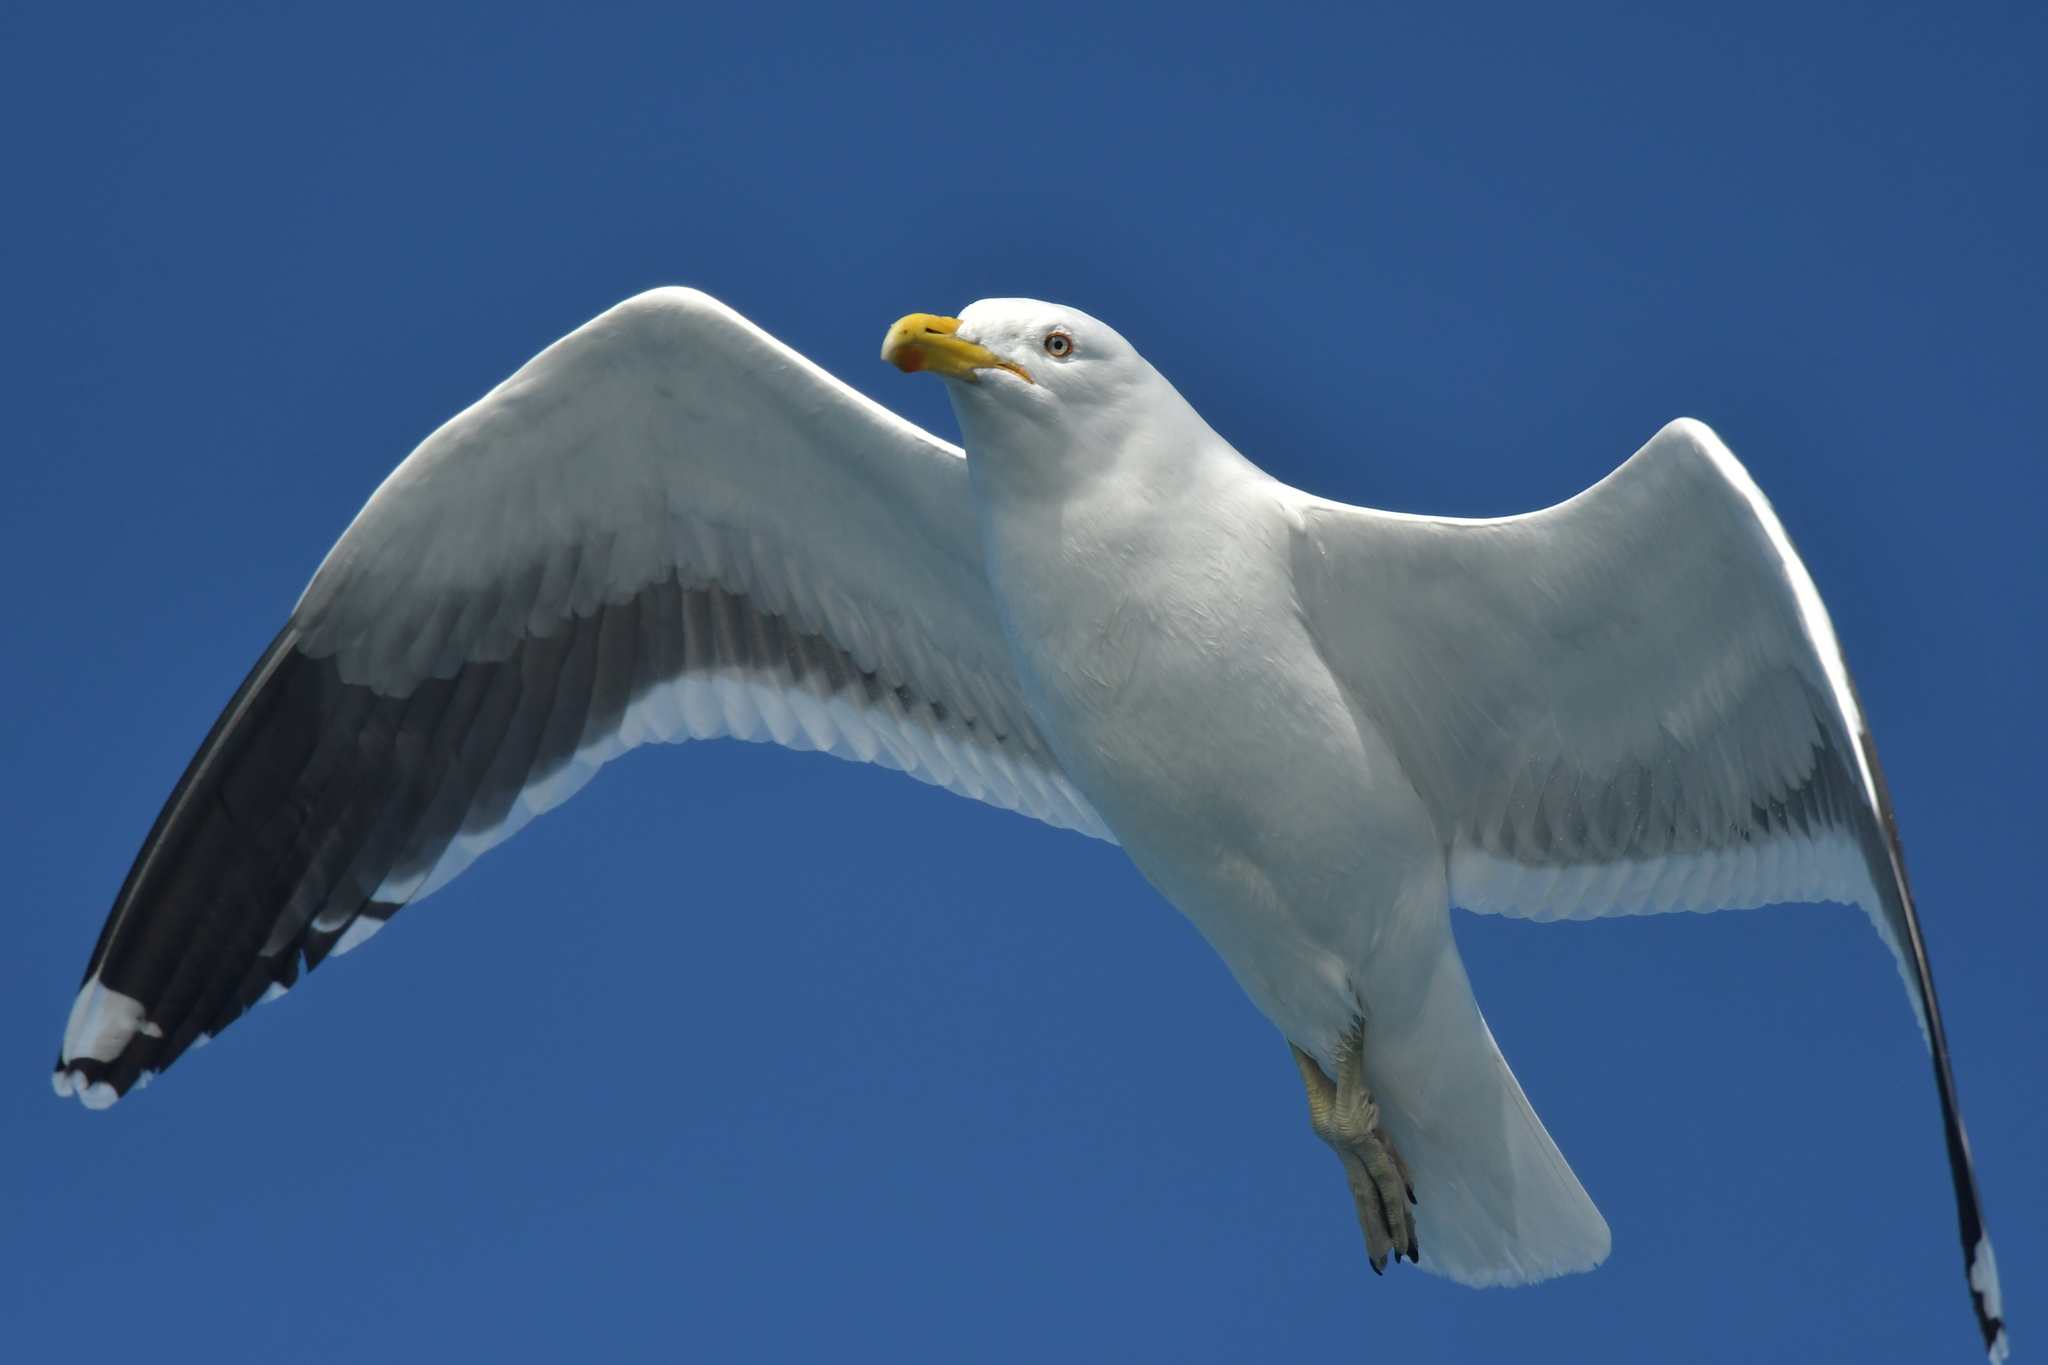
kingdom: Animalia
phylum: Chordata
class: Aves
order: Charadriiformes
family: Laridae
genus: Larus
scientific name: Larus dominicanus
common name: Kelp gull
